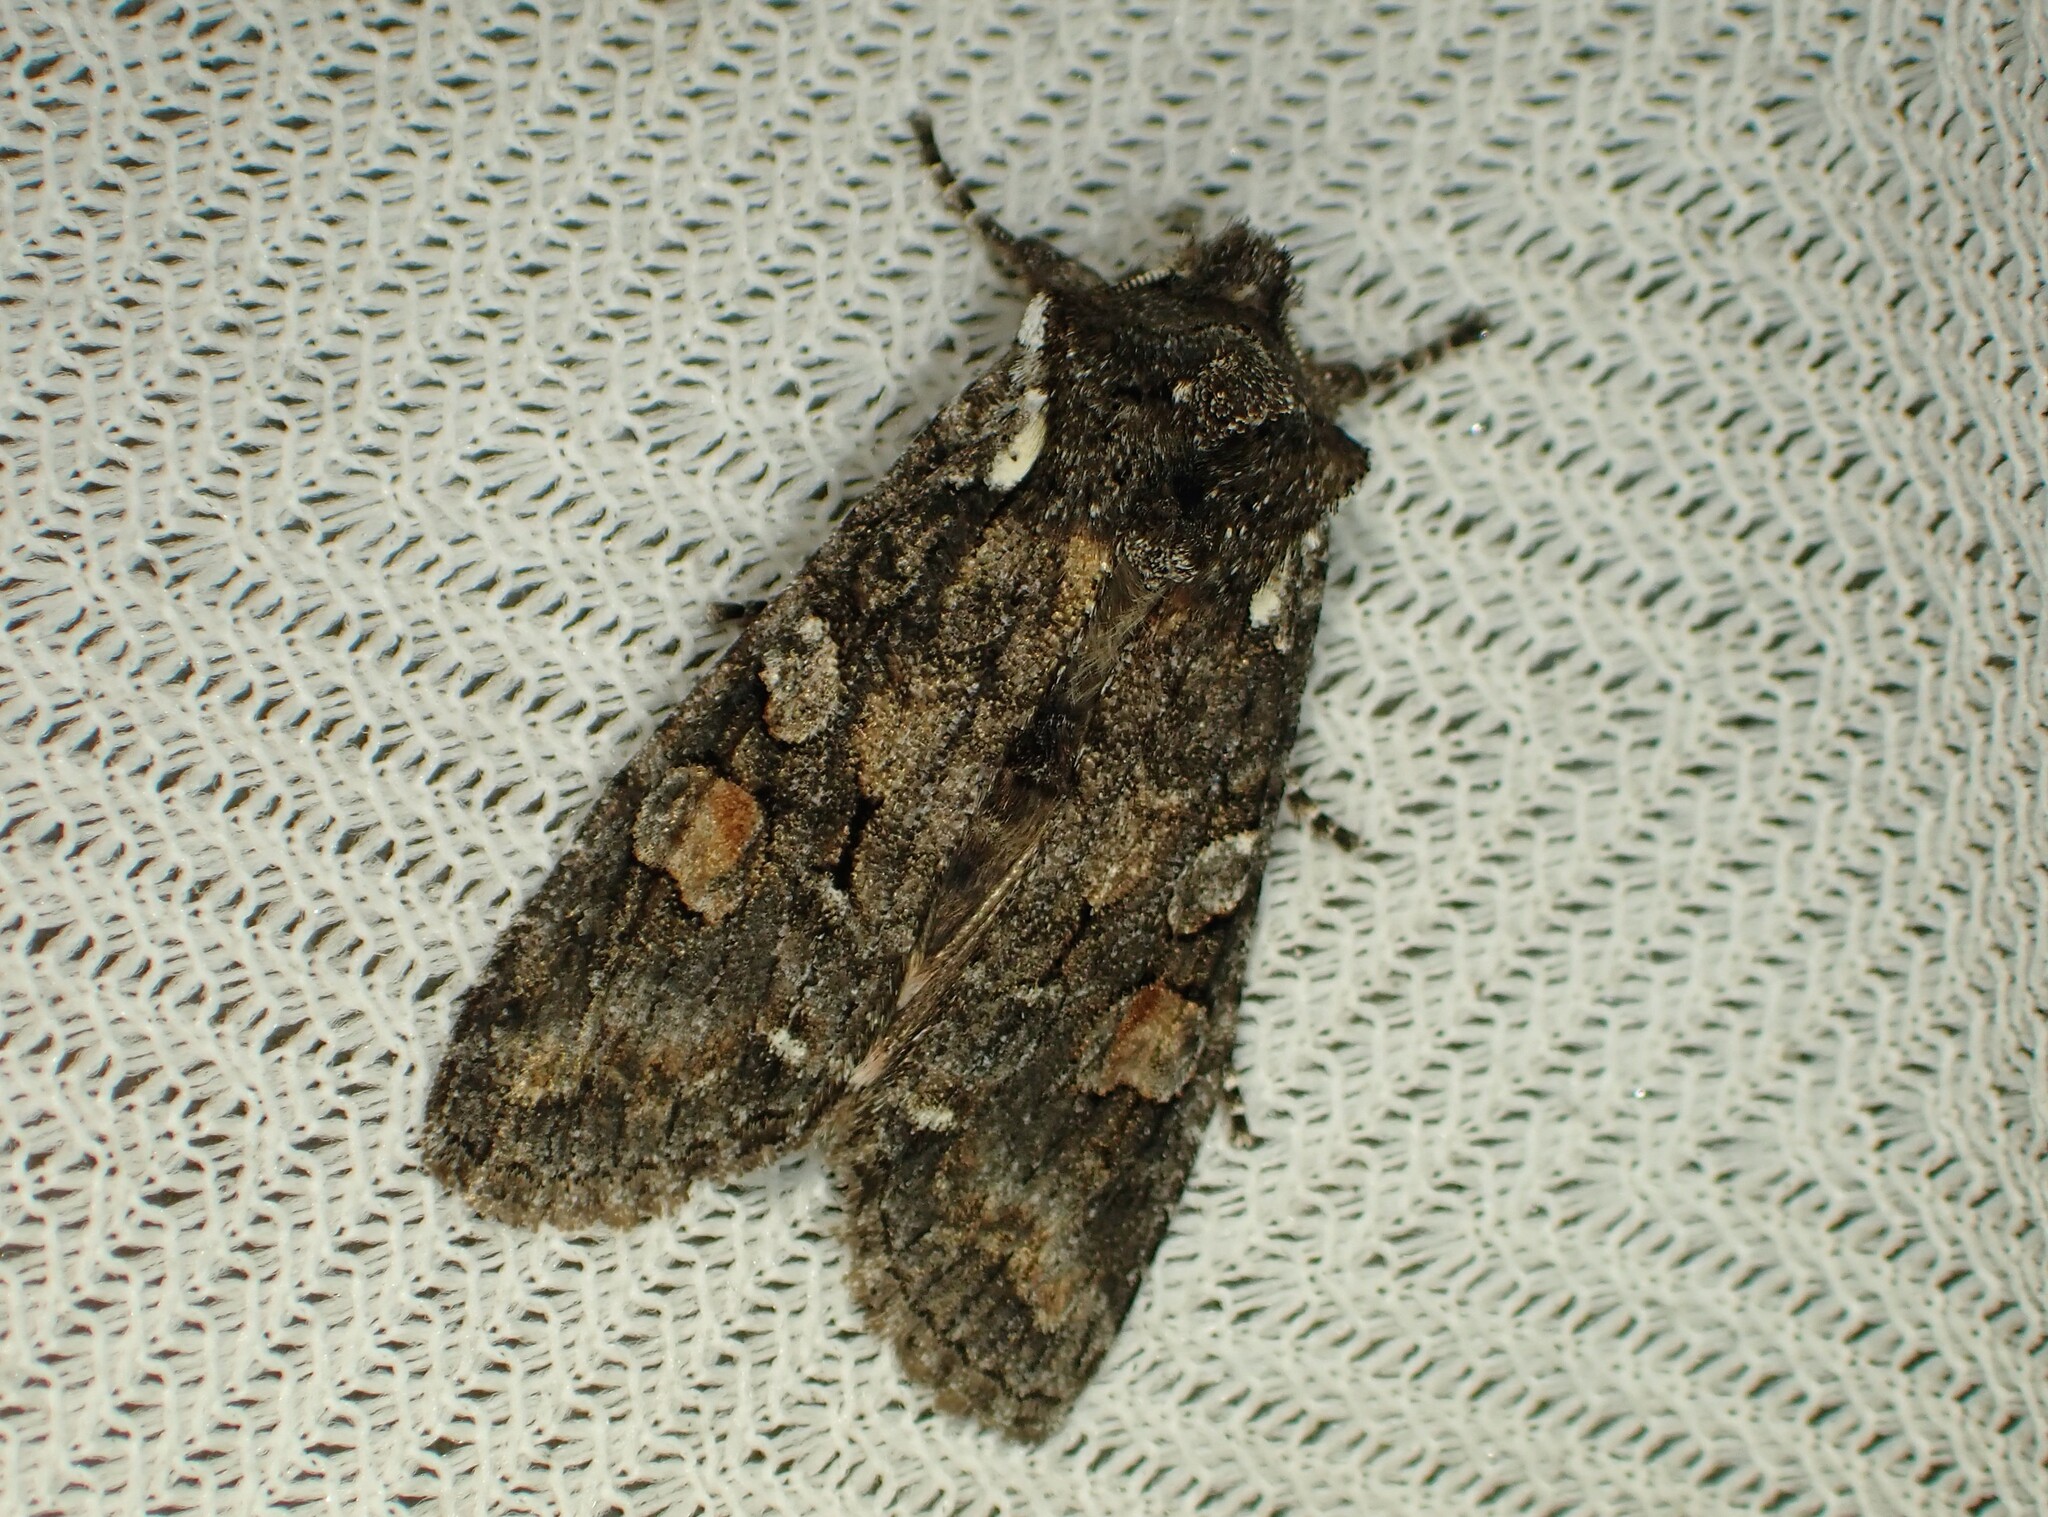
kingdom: Animalia
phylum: Arthropoda
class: Insecta
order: Lepidoptera
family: Noctuidae
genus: Lithophane
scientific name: Lithophane pexata
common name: Plush-naped pinion moth
